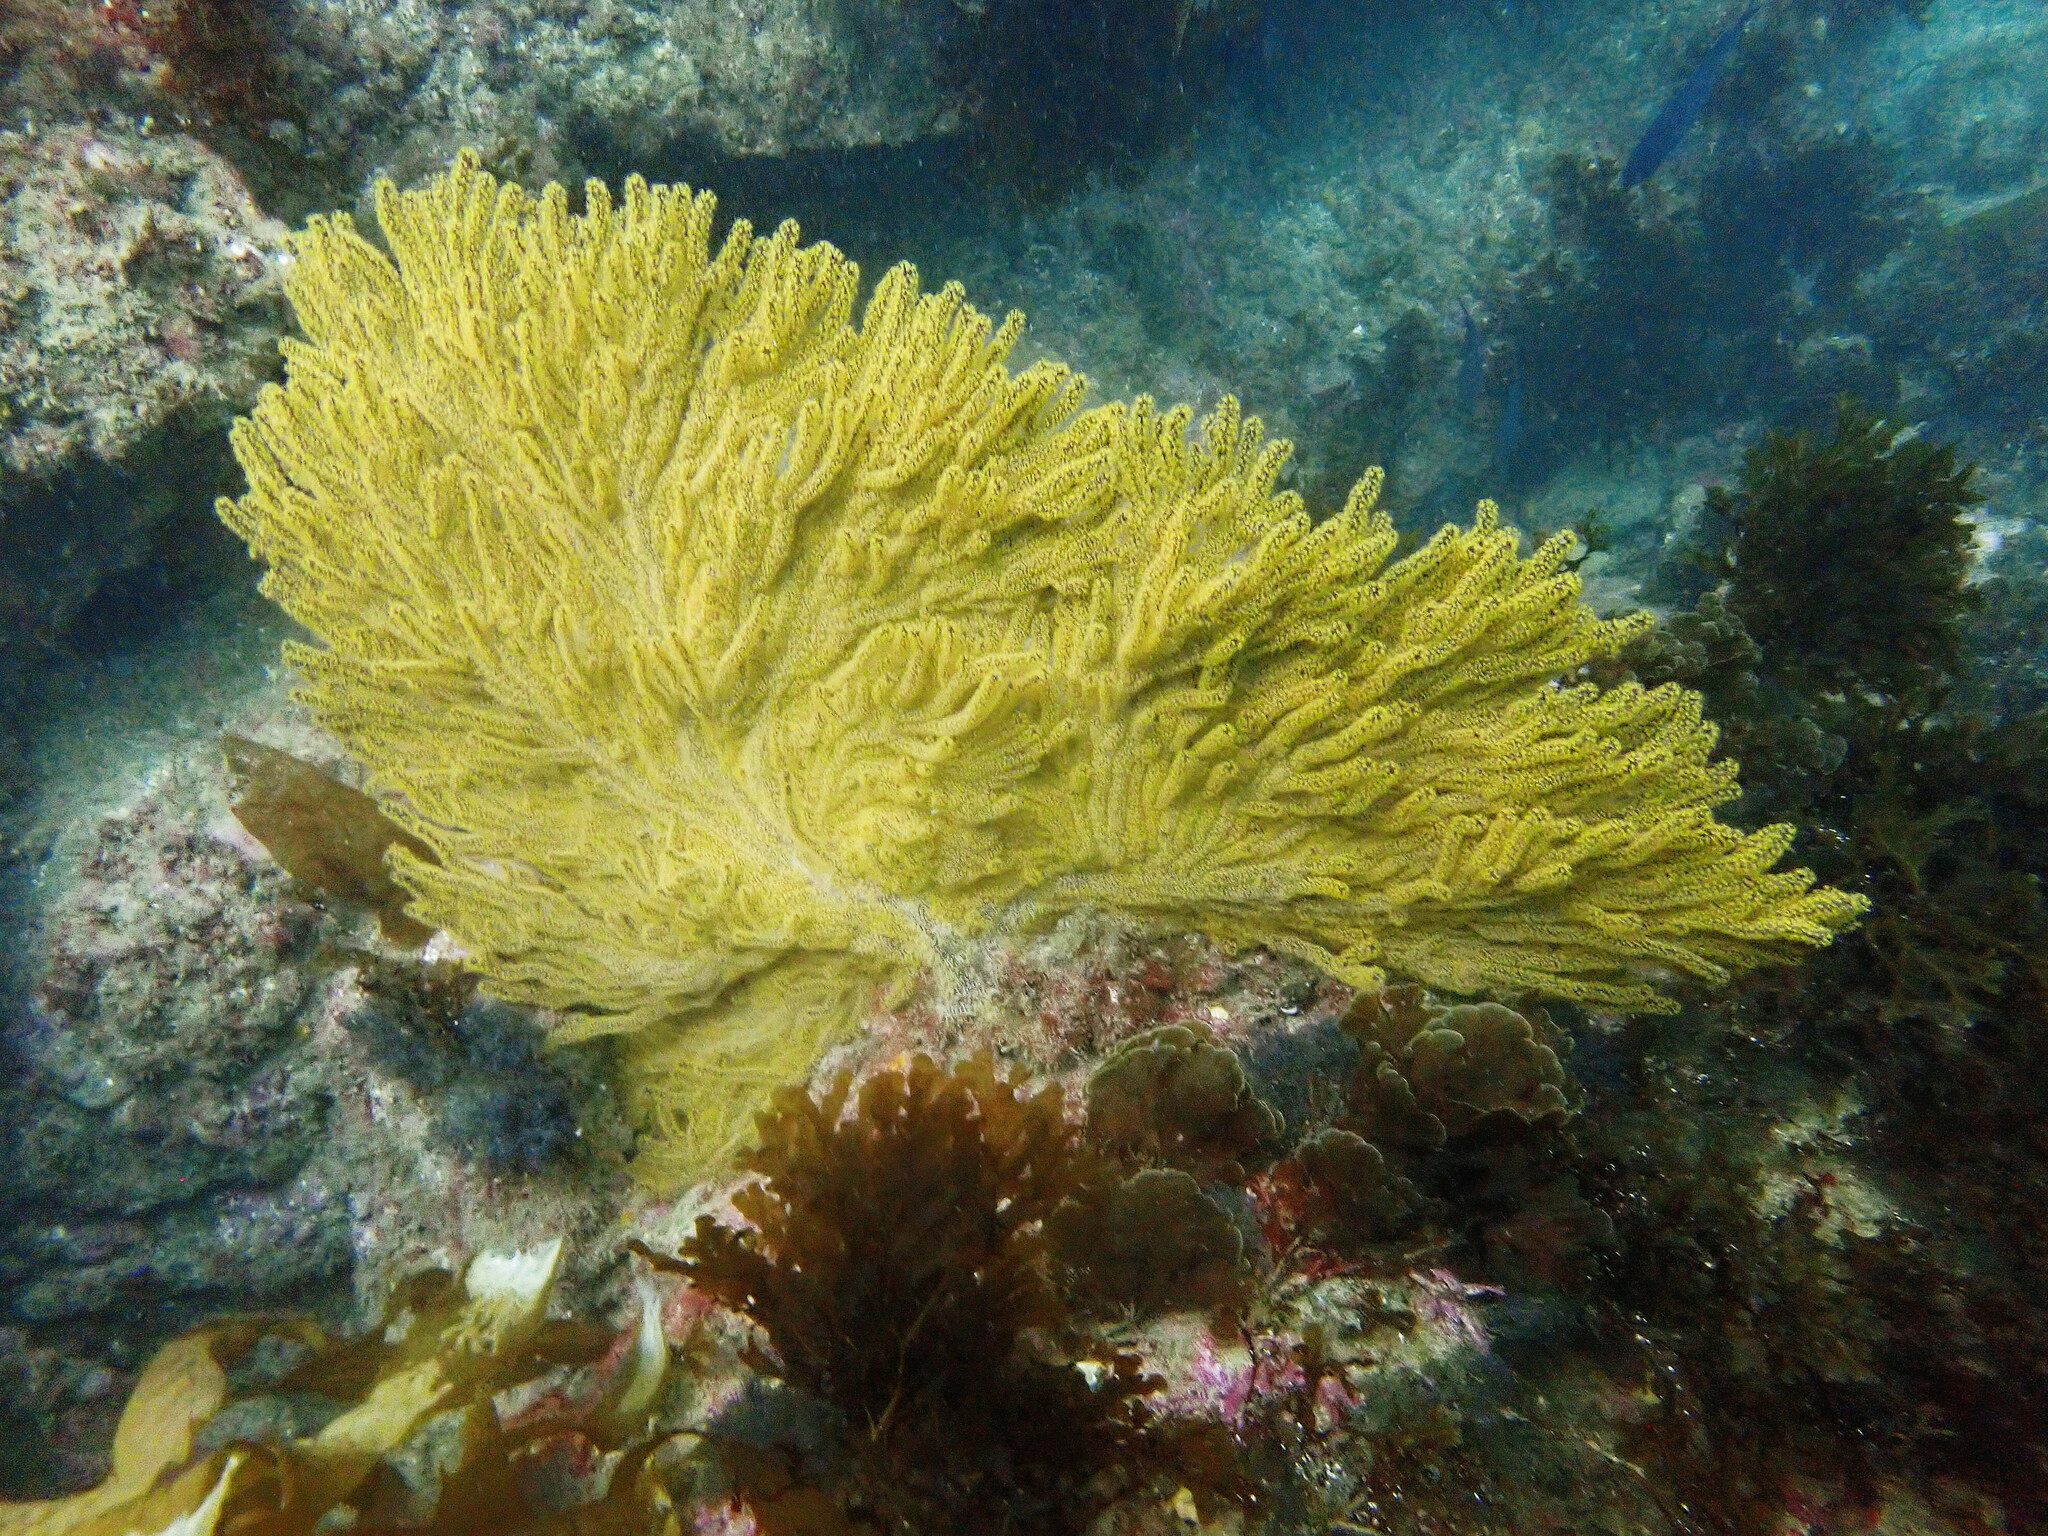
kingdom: Animalia
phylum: Cnidaria
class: Anthozoa
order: Malacalcyonacea
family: Plexauridae
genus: Muricea
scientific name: Muricea californica
